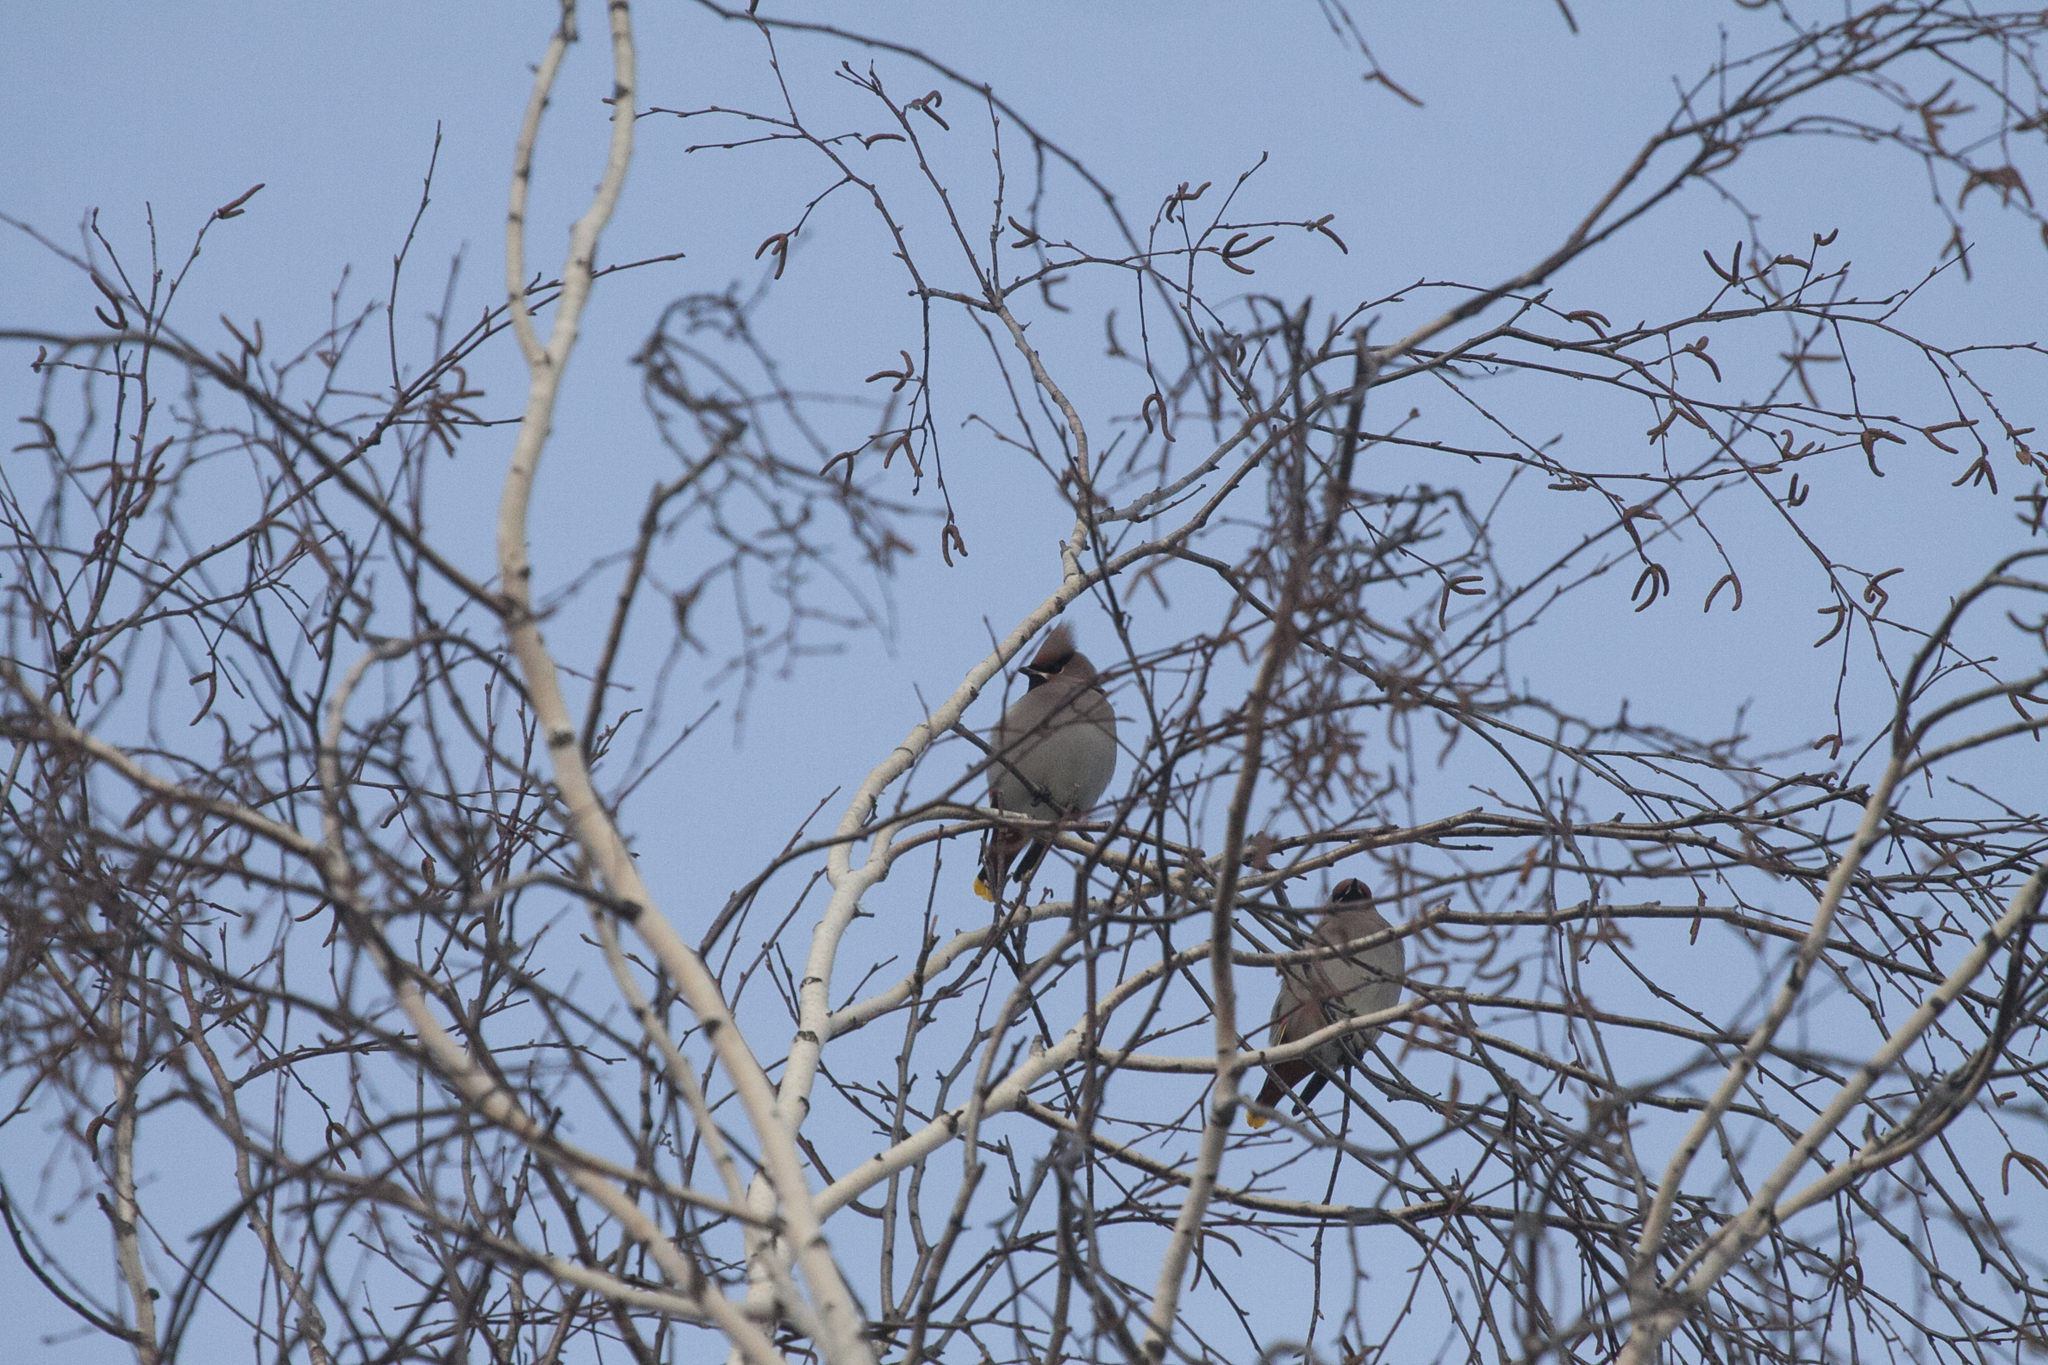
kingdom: Animalia
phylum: Chordata
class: Aves
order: Passeriformes
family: Bombycillidae
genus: Bombycilla
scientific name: Bombycilla garrulus
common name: Bohemian waxwing
